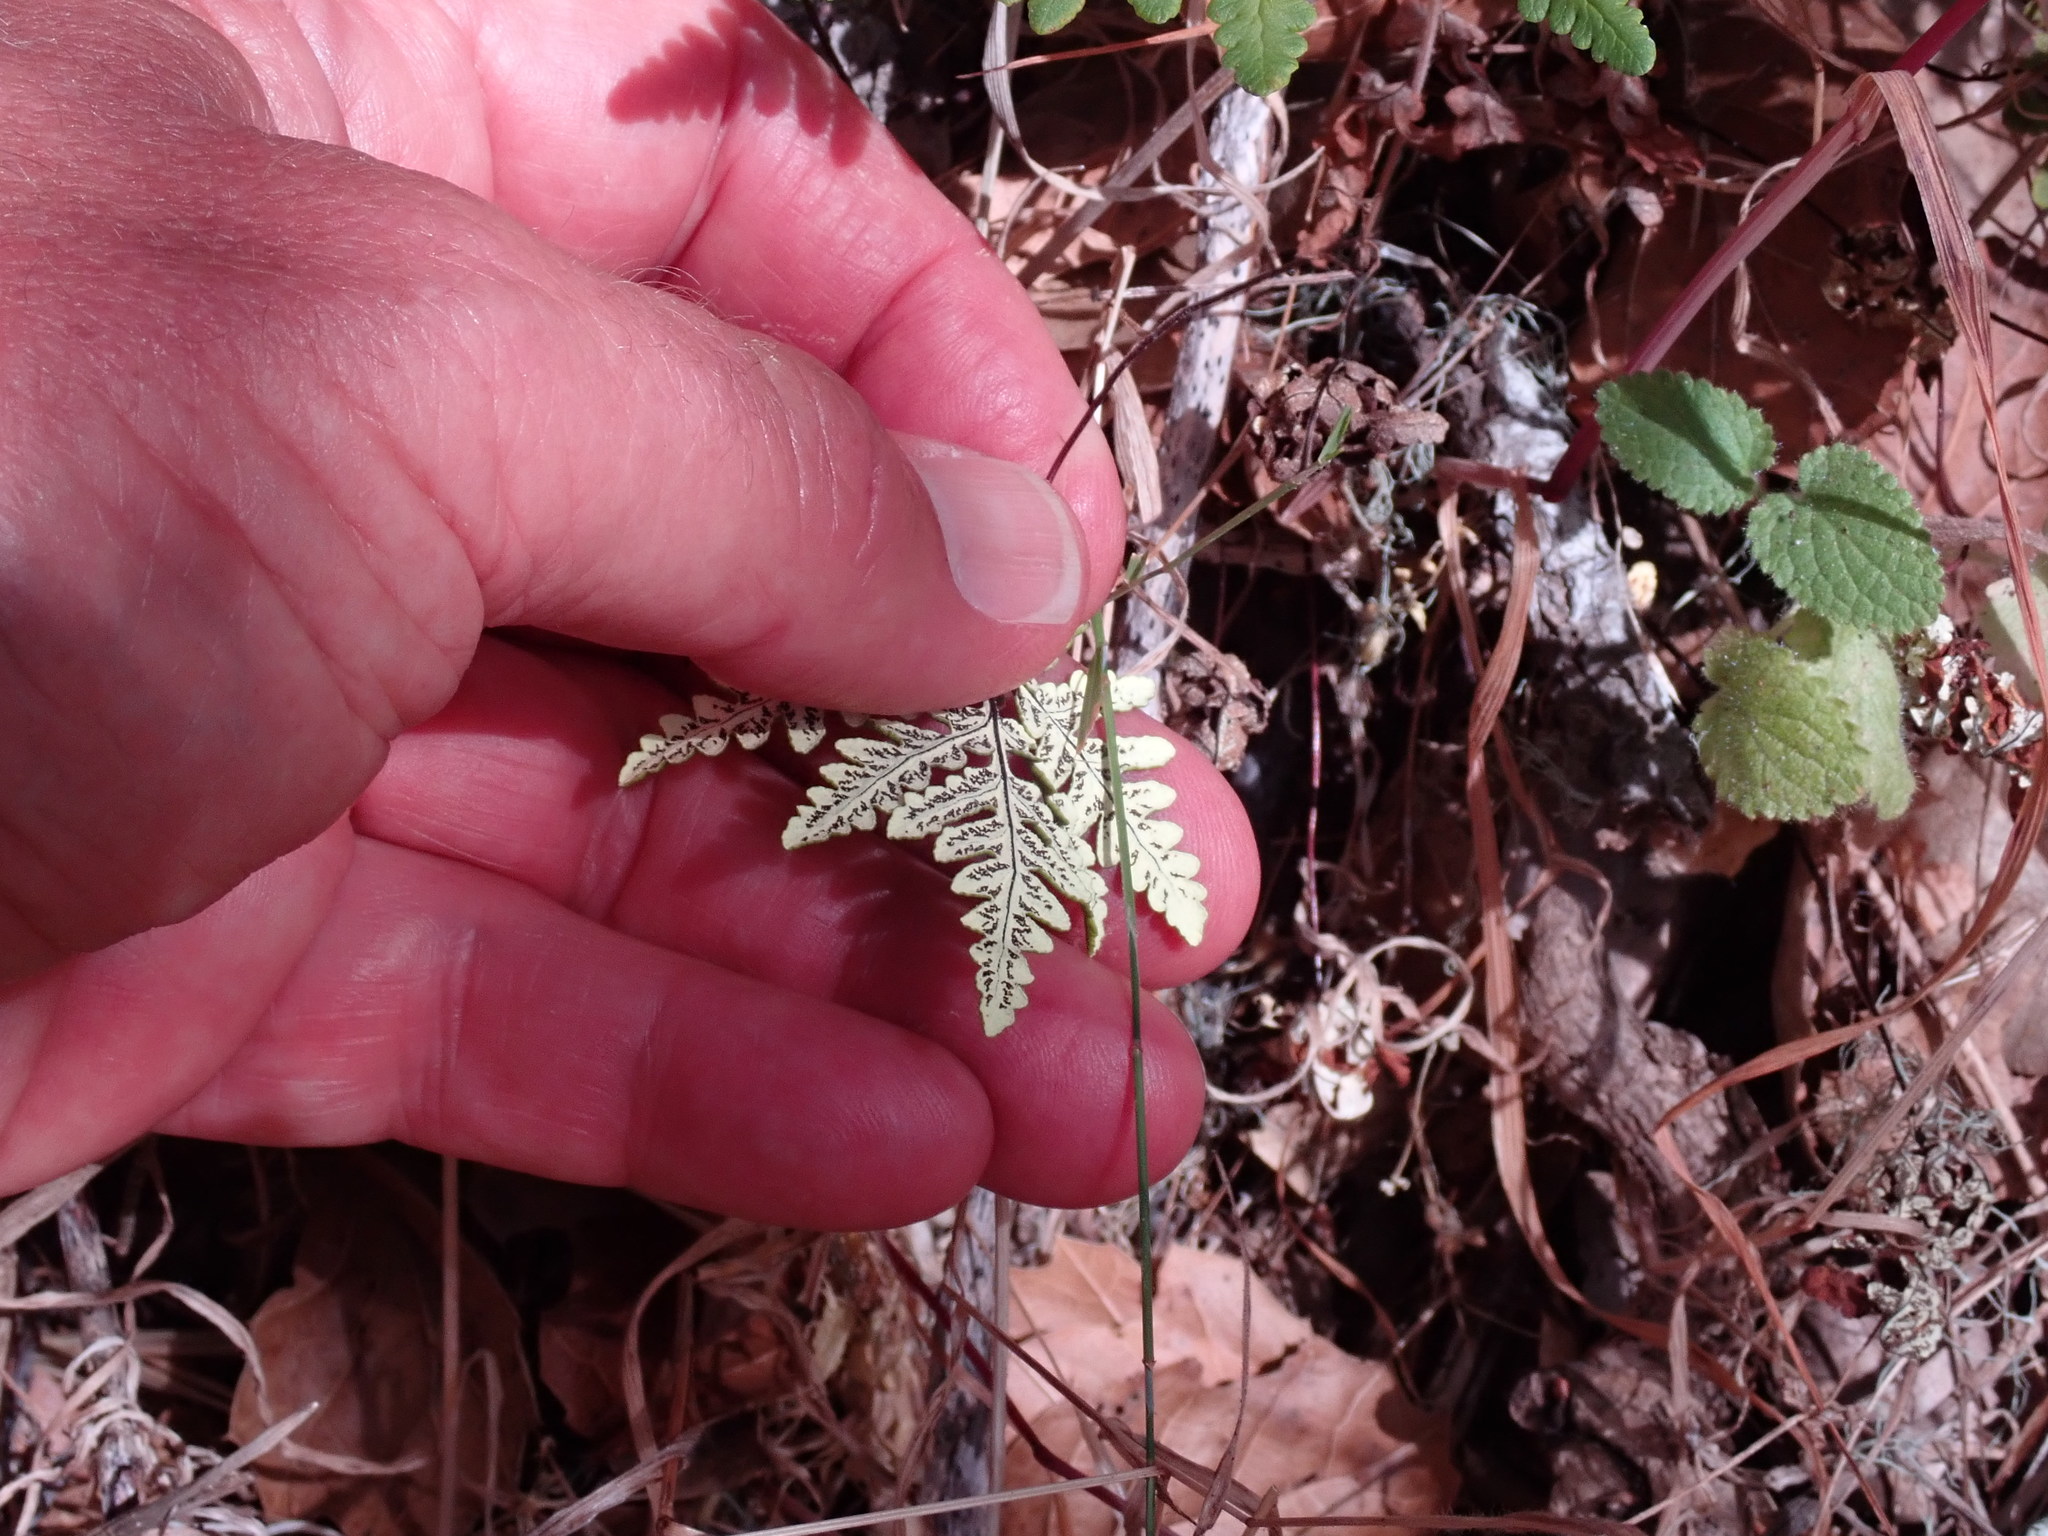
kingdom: Plantae
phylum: Tracheophyta
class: Polypodiopsida
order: Polypodiales
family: Pteridaceae
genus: Pentagramma
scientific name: Pentagramma triangularis
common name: Gold fern
